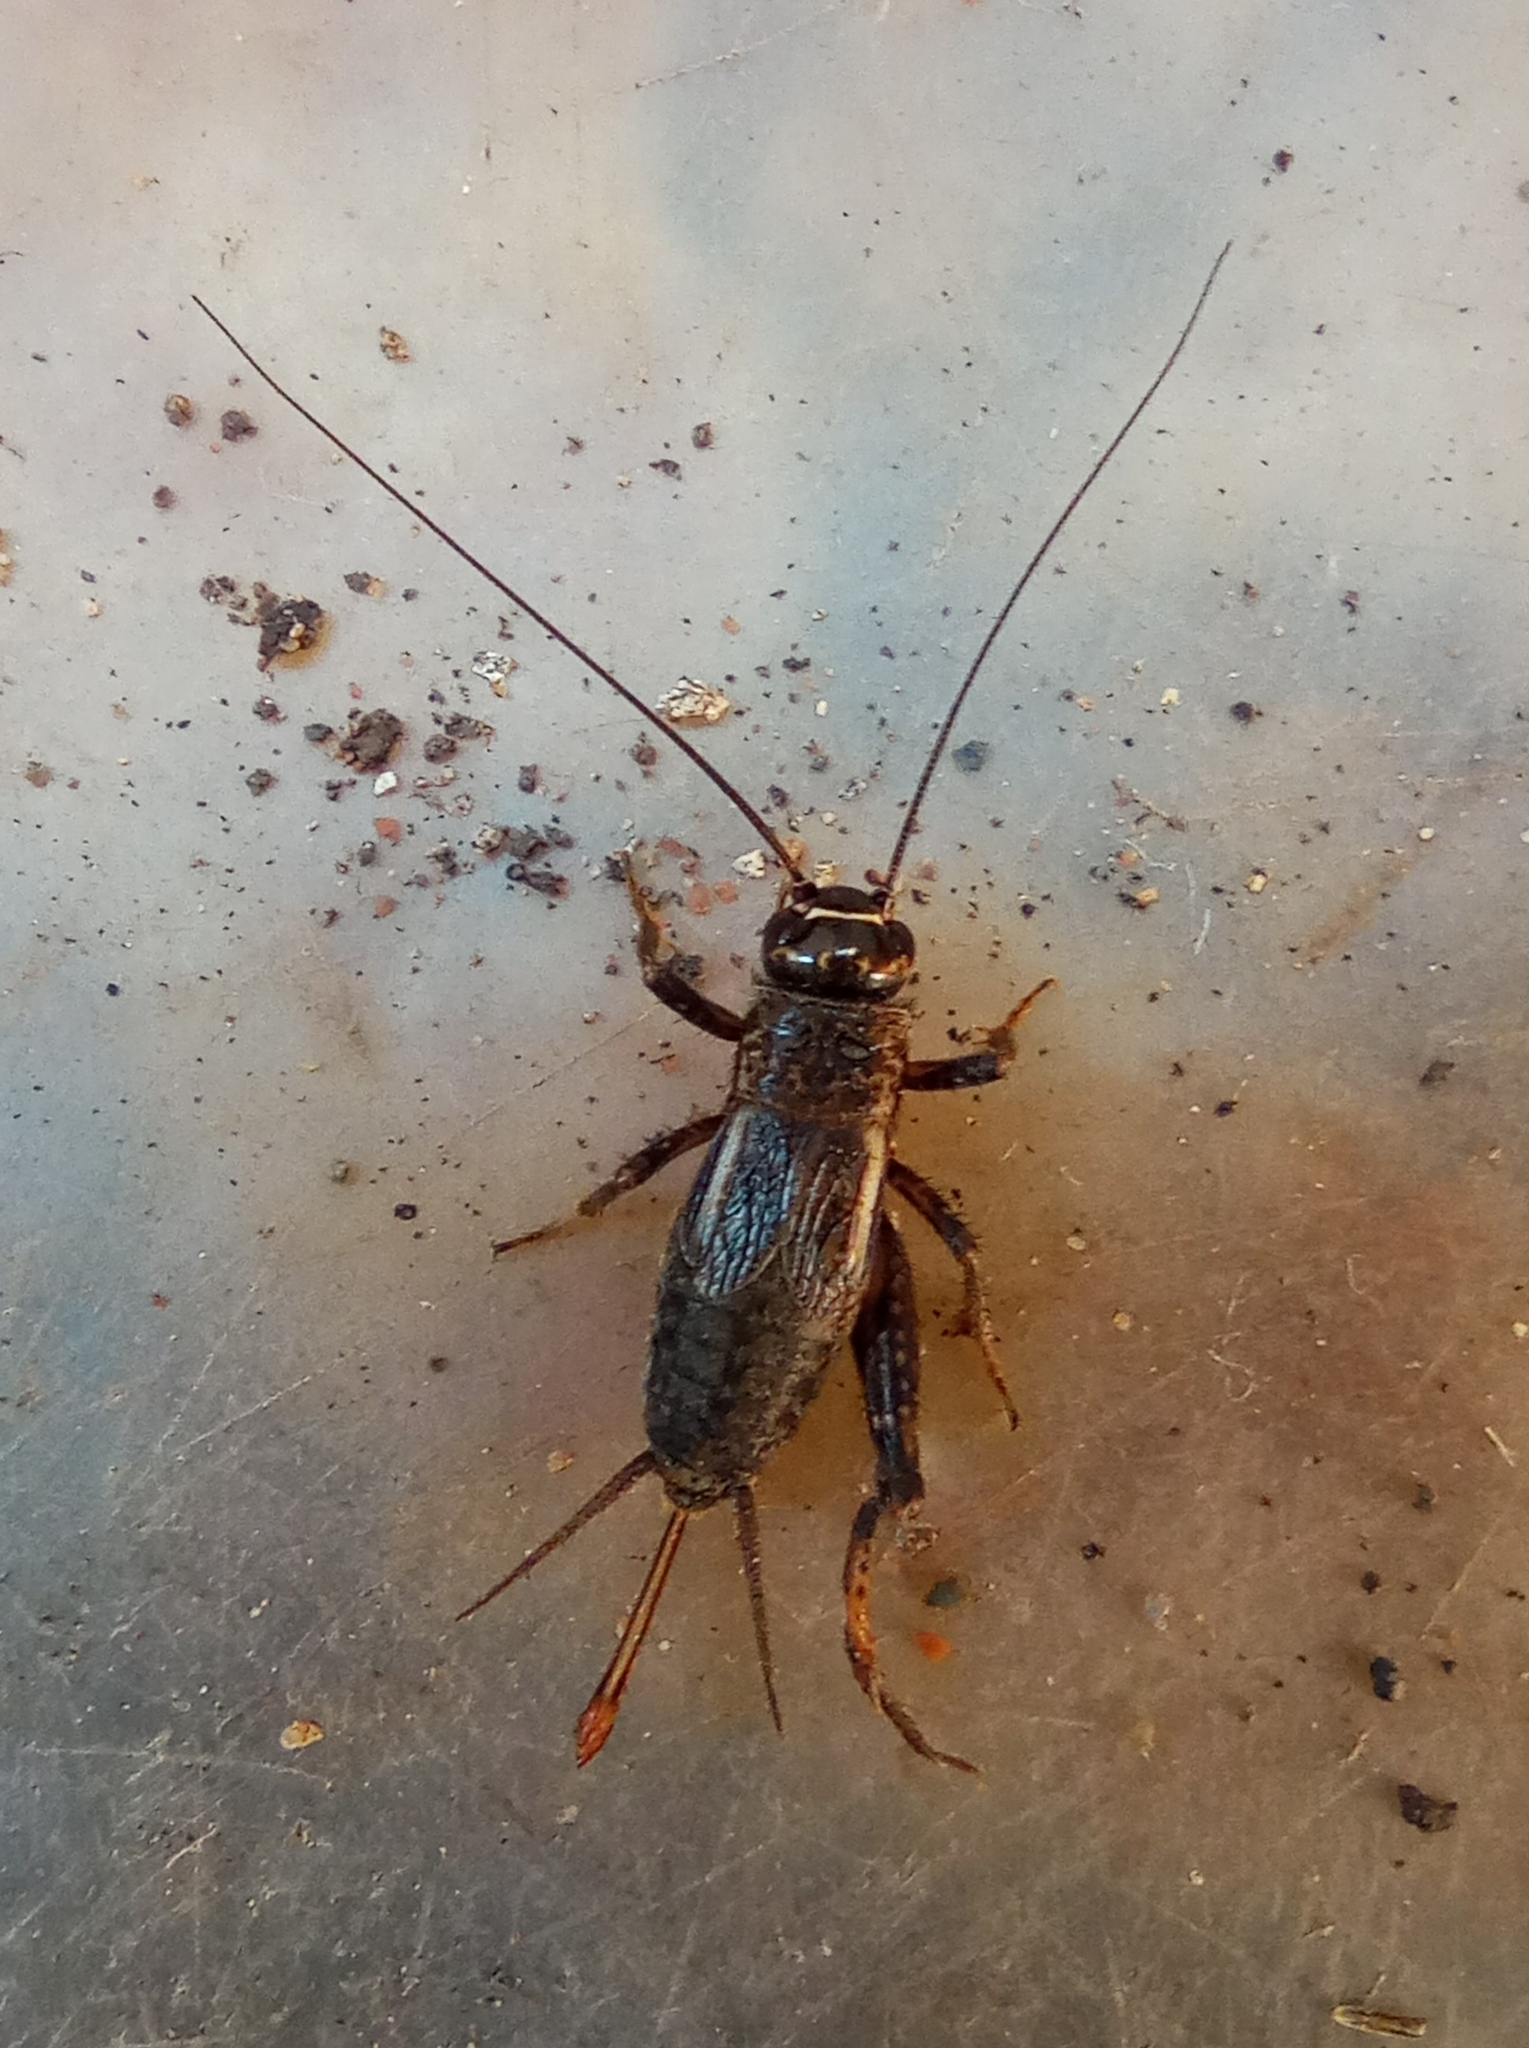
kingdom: Animalia
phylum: Arthropoda
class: Insecta
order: Orthoptera
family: Gryllidae
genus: Modicogryllus
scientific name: Modicogryllus frontalis
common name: Eastern cricket
